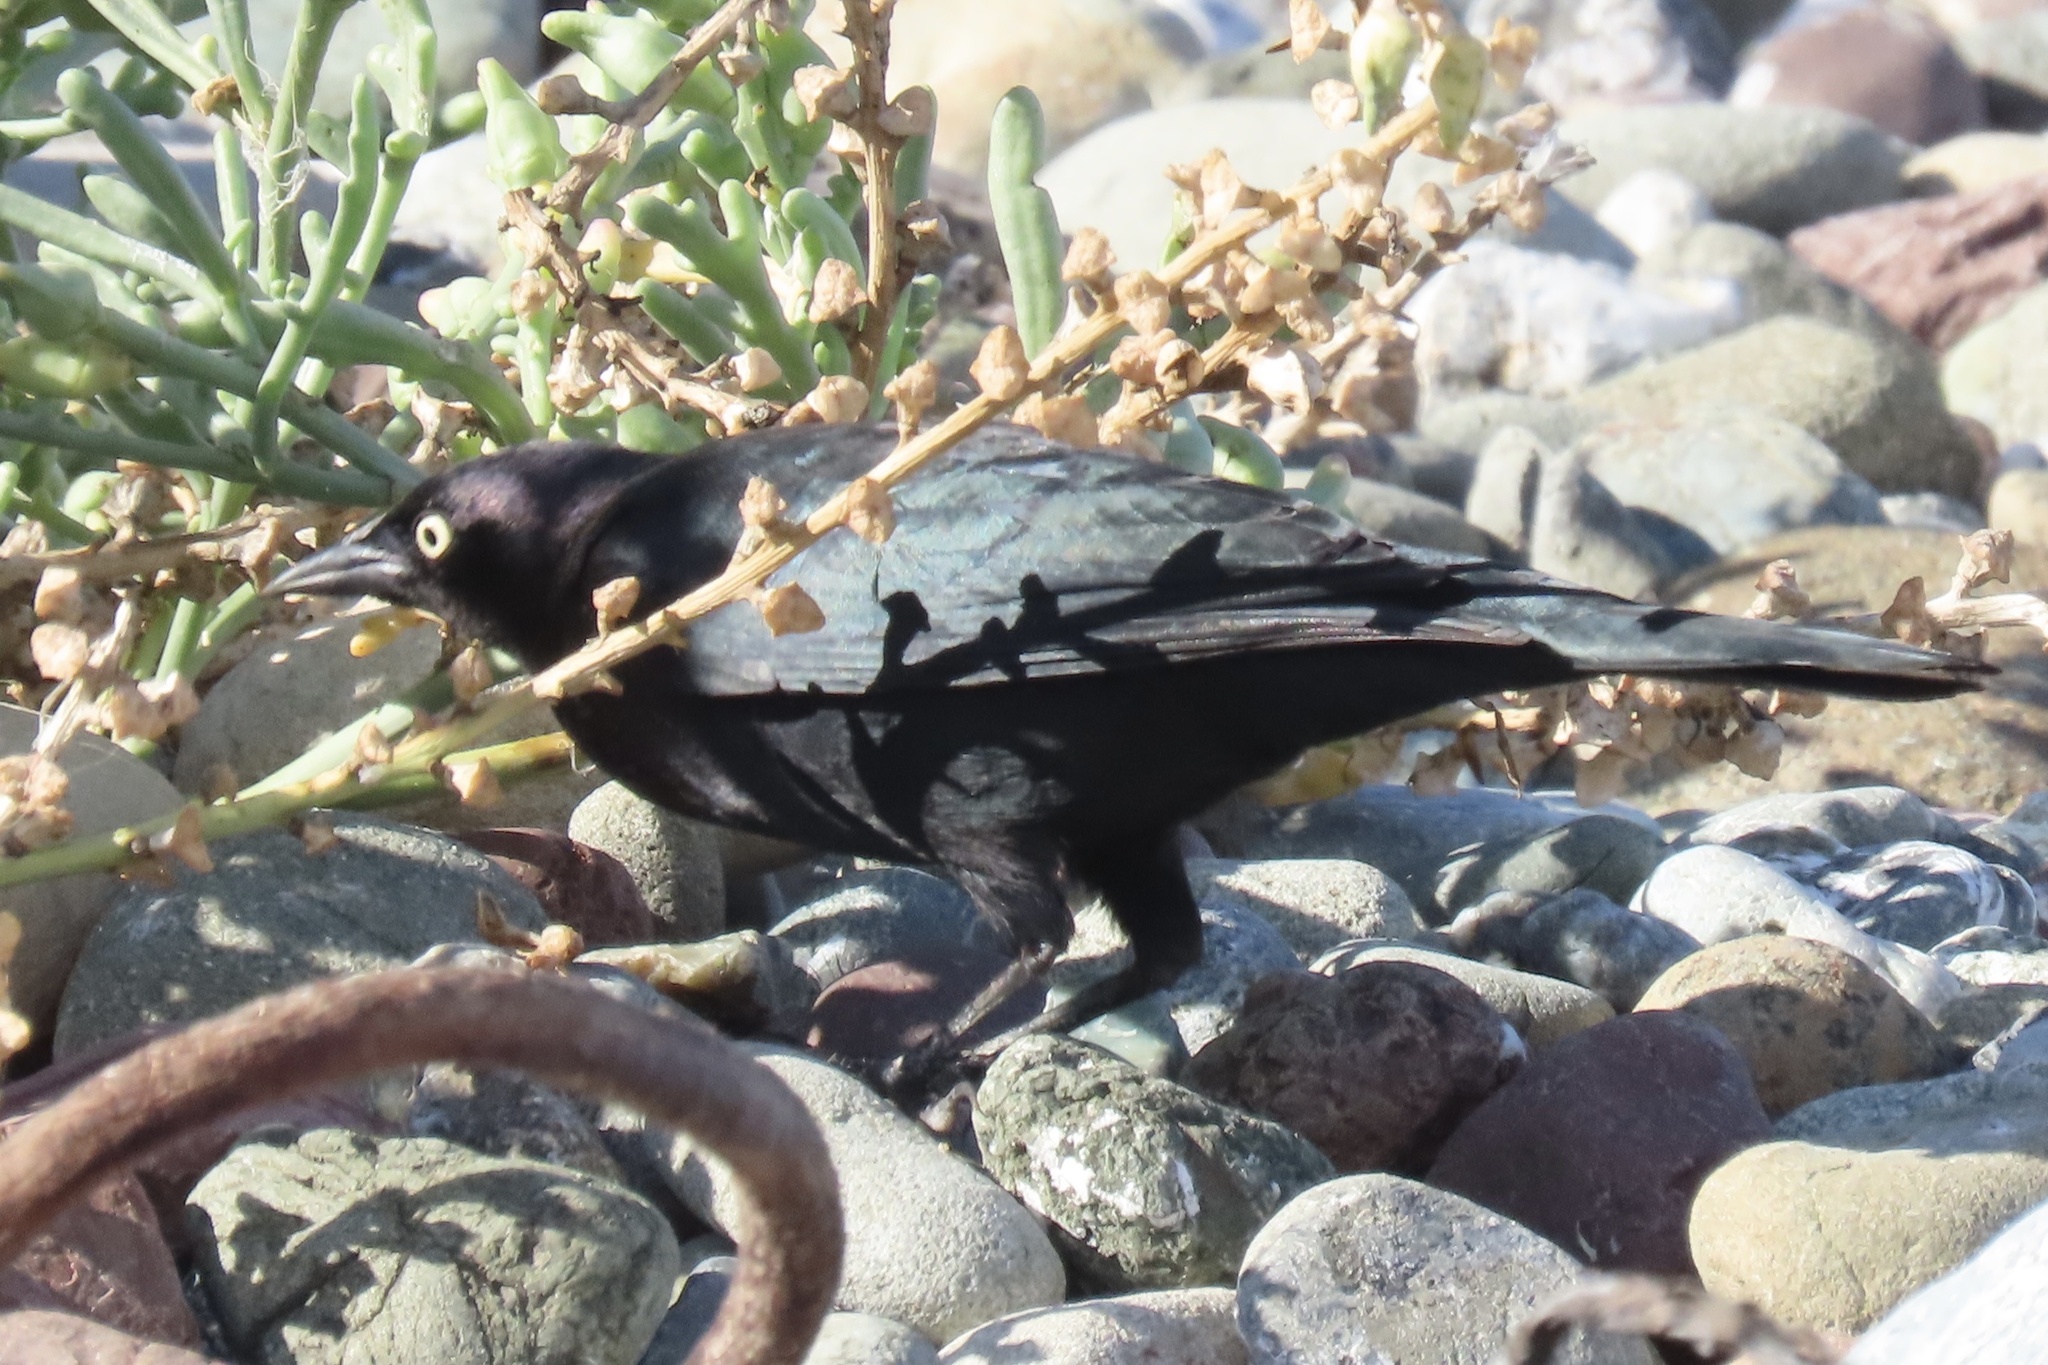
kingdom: Animalia
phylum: Chordata
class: Aves
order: Passeriformes
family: Icteridae
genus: Euphagus
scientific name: Euphagus cyanocephalus
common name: Brewer's blackbird
